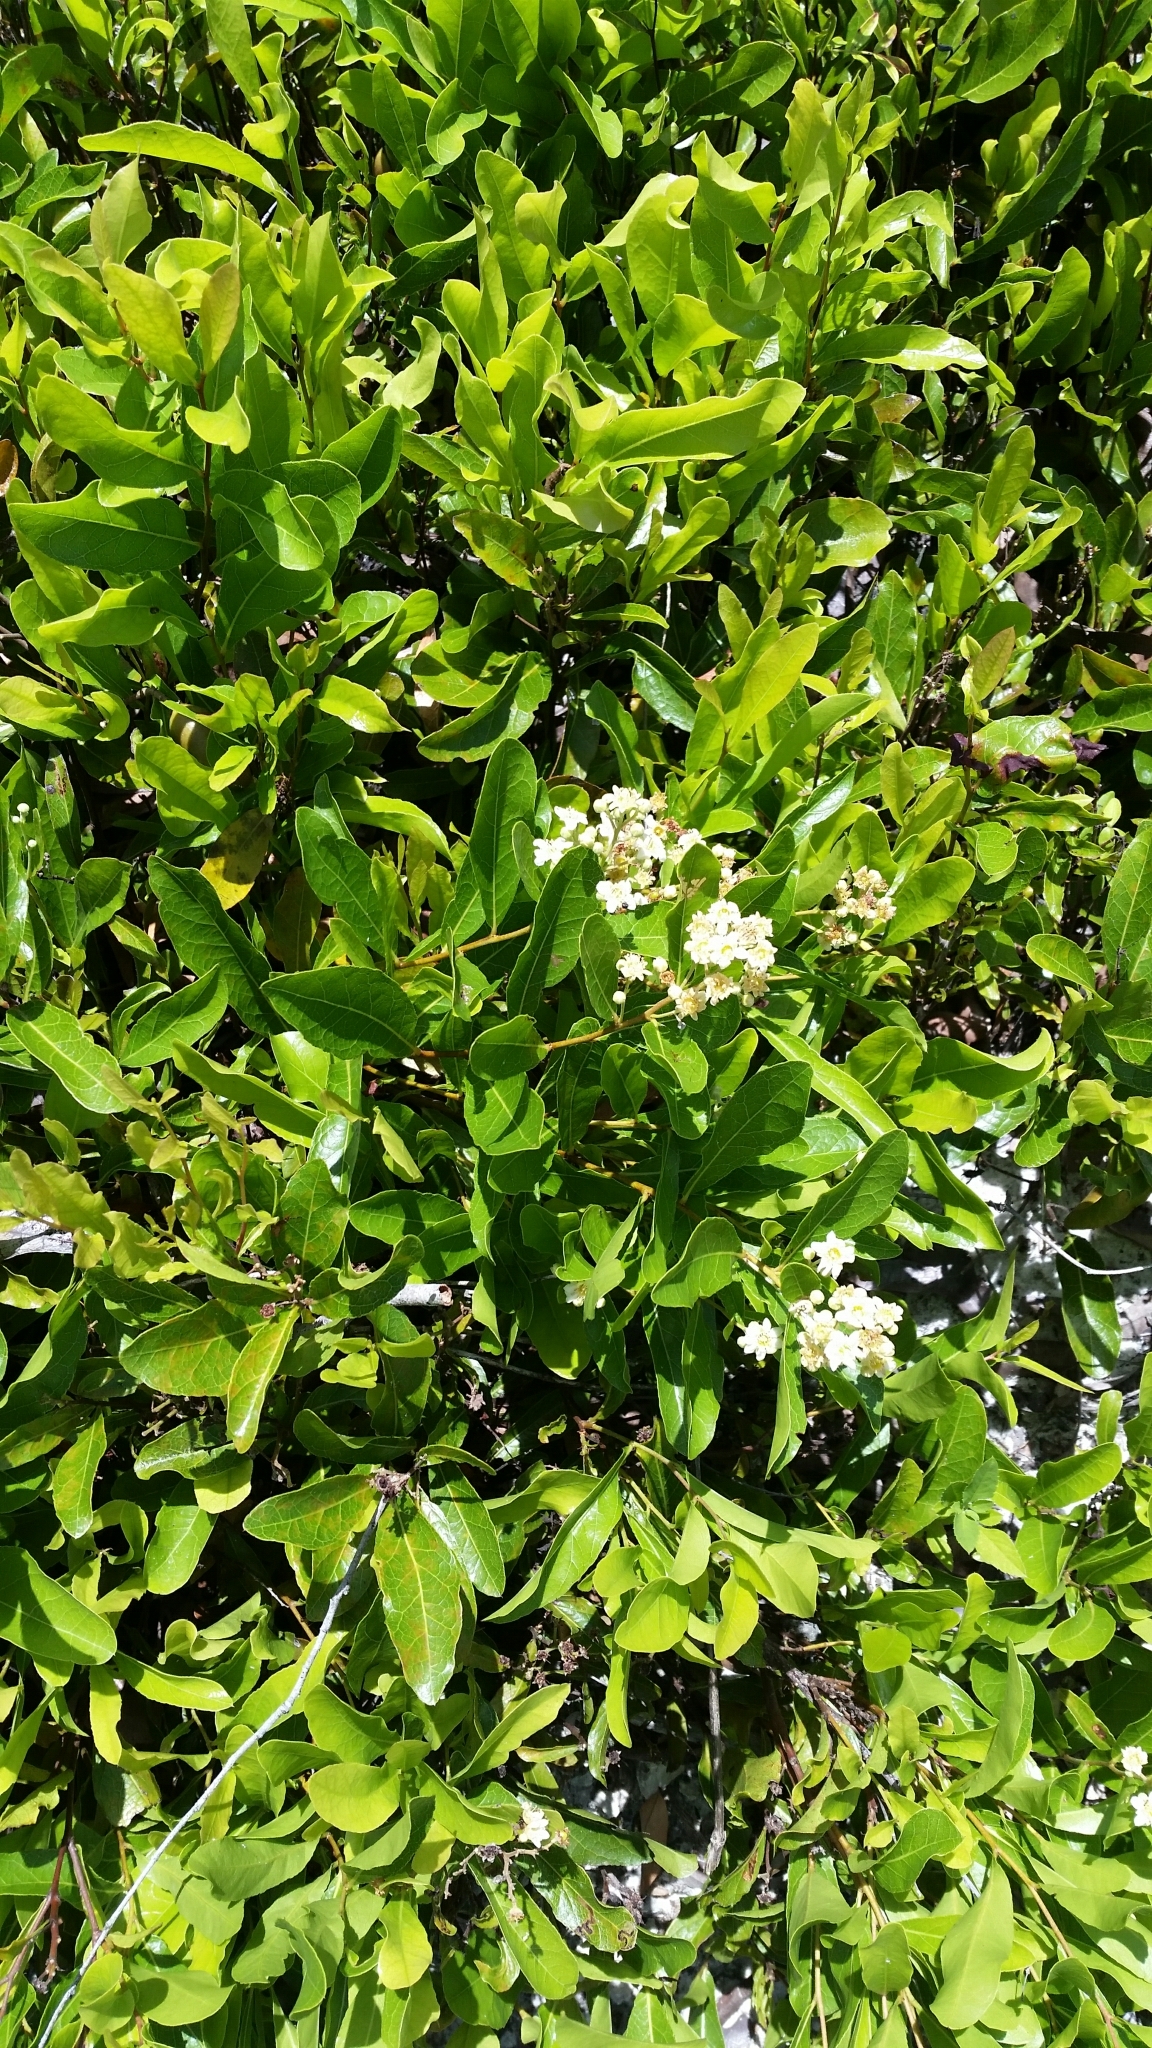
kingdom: Plantae
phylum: Tracheophyta
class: Magnoliopsida
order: Malpighiales
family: Chrysobalanaceae
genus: Geobalanus
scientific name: Geobalanus oblongifolius
